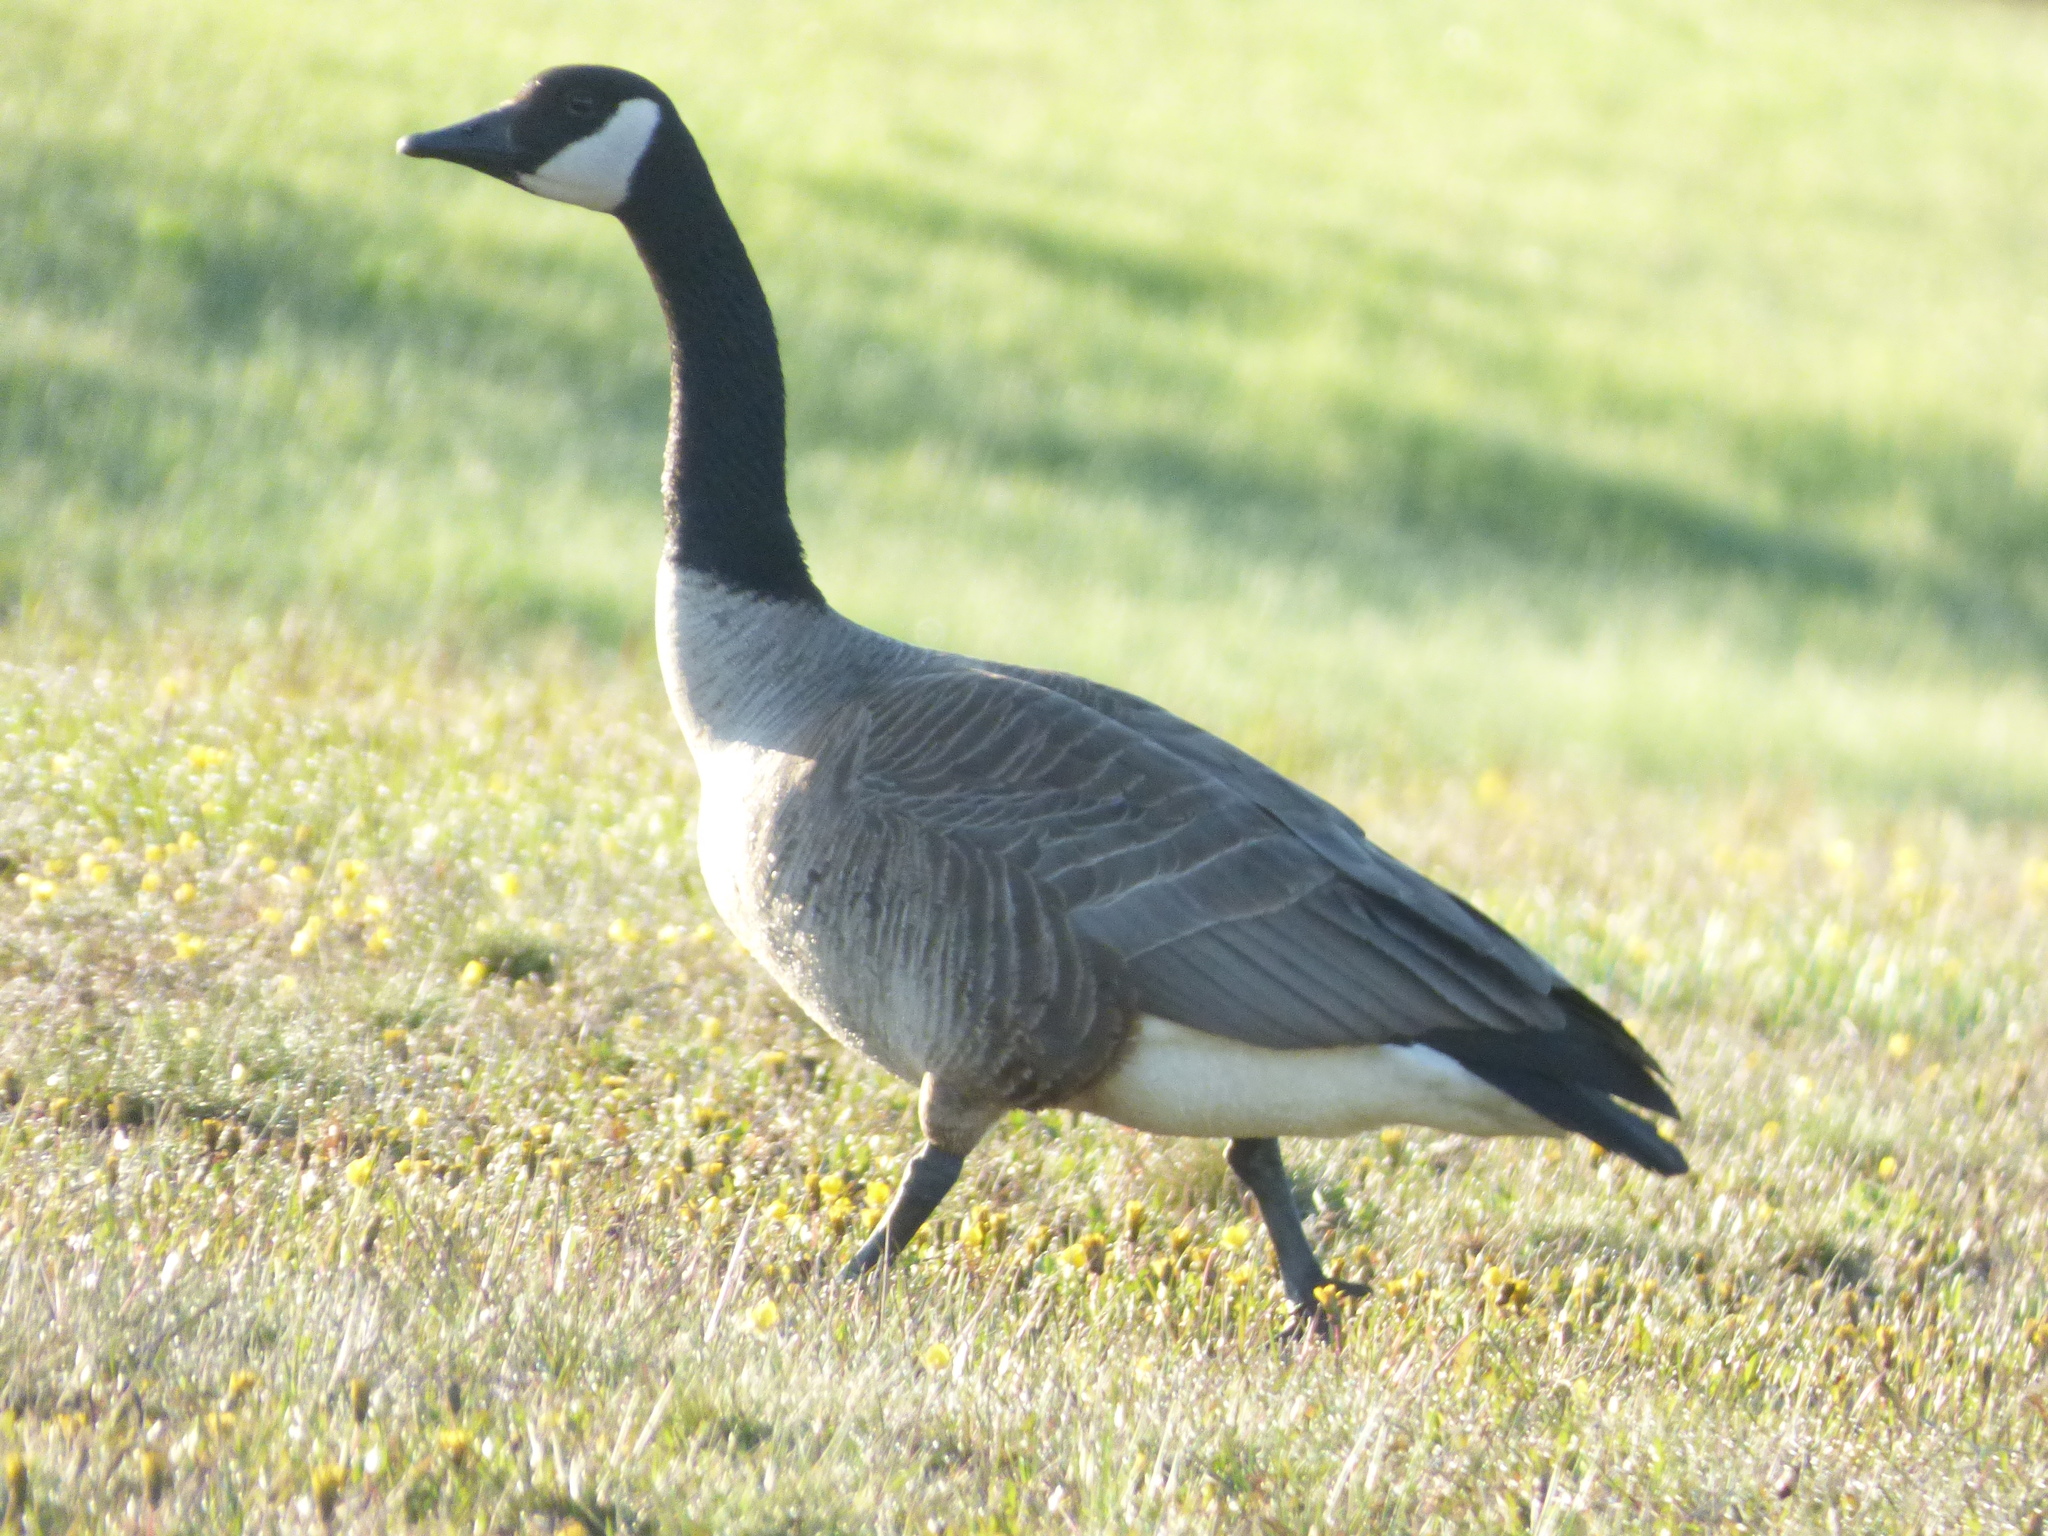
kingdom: Animalia
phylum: Chordata
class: Aves
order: Anseriformes
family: Anatidae
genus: Branta
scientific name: Branta canadensis
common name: Canada goose
